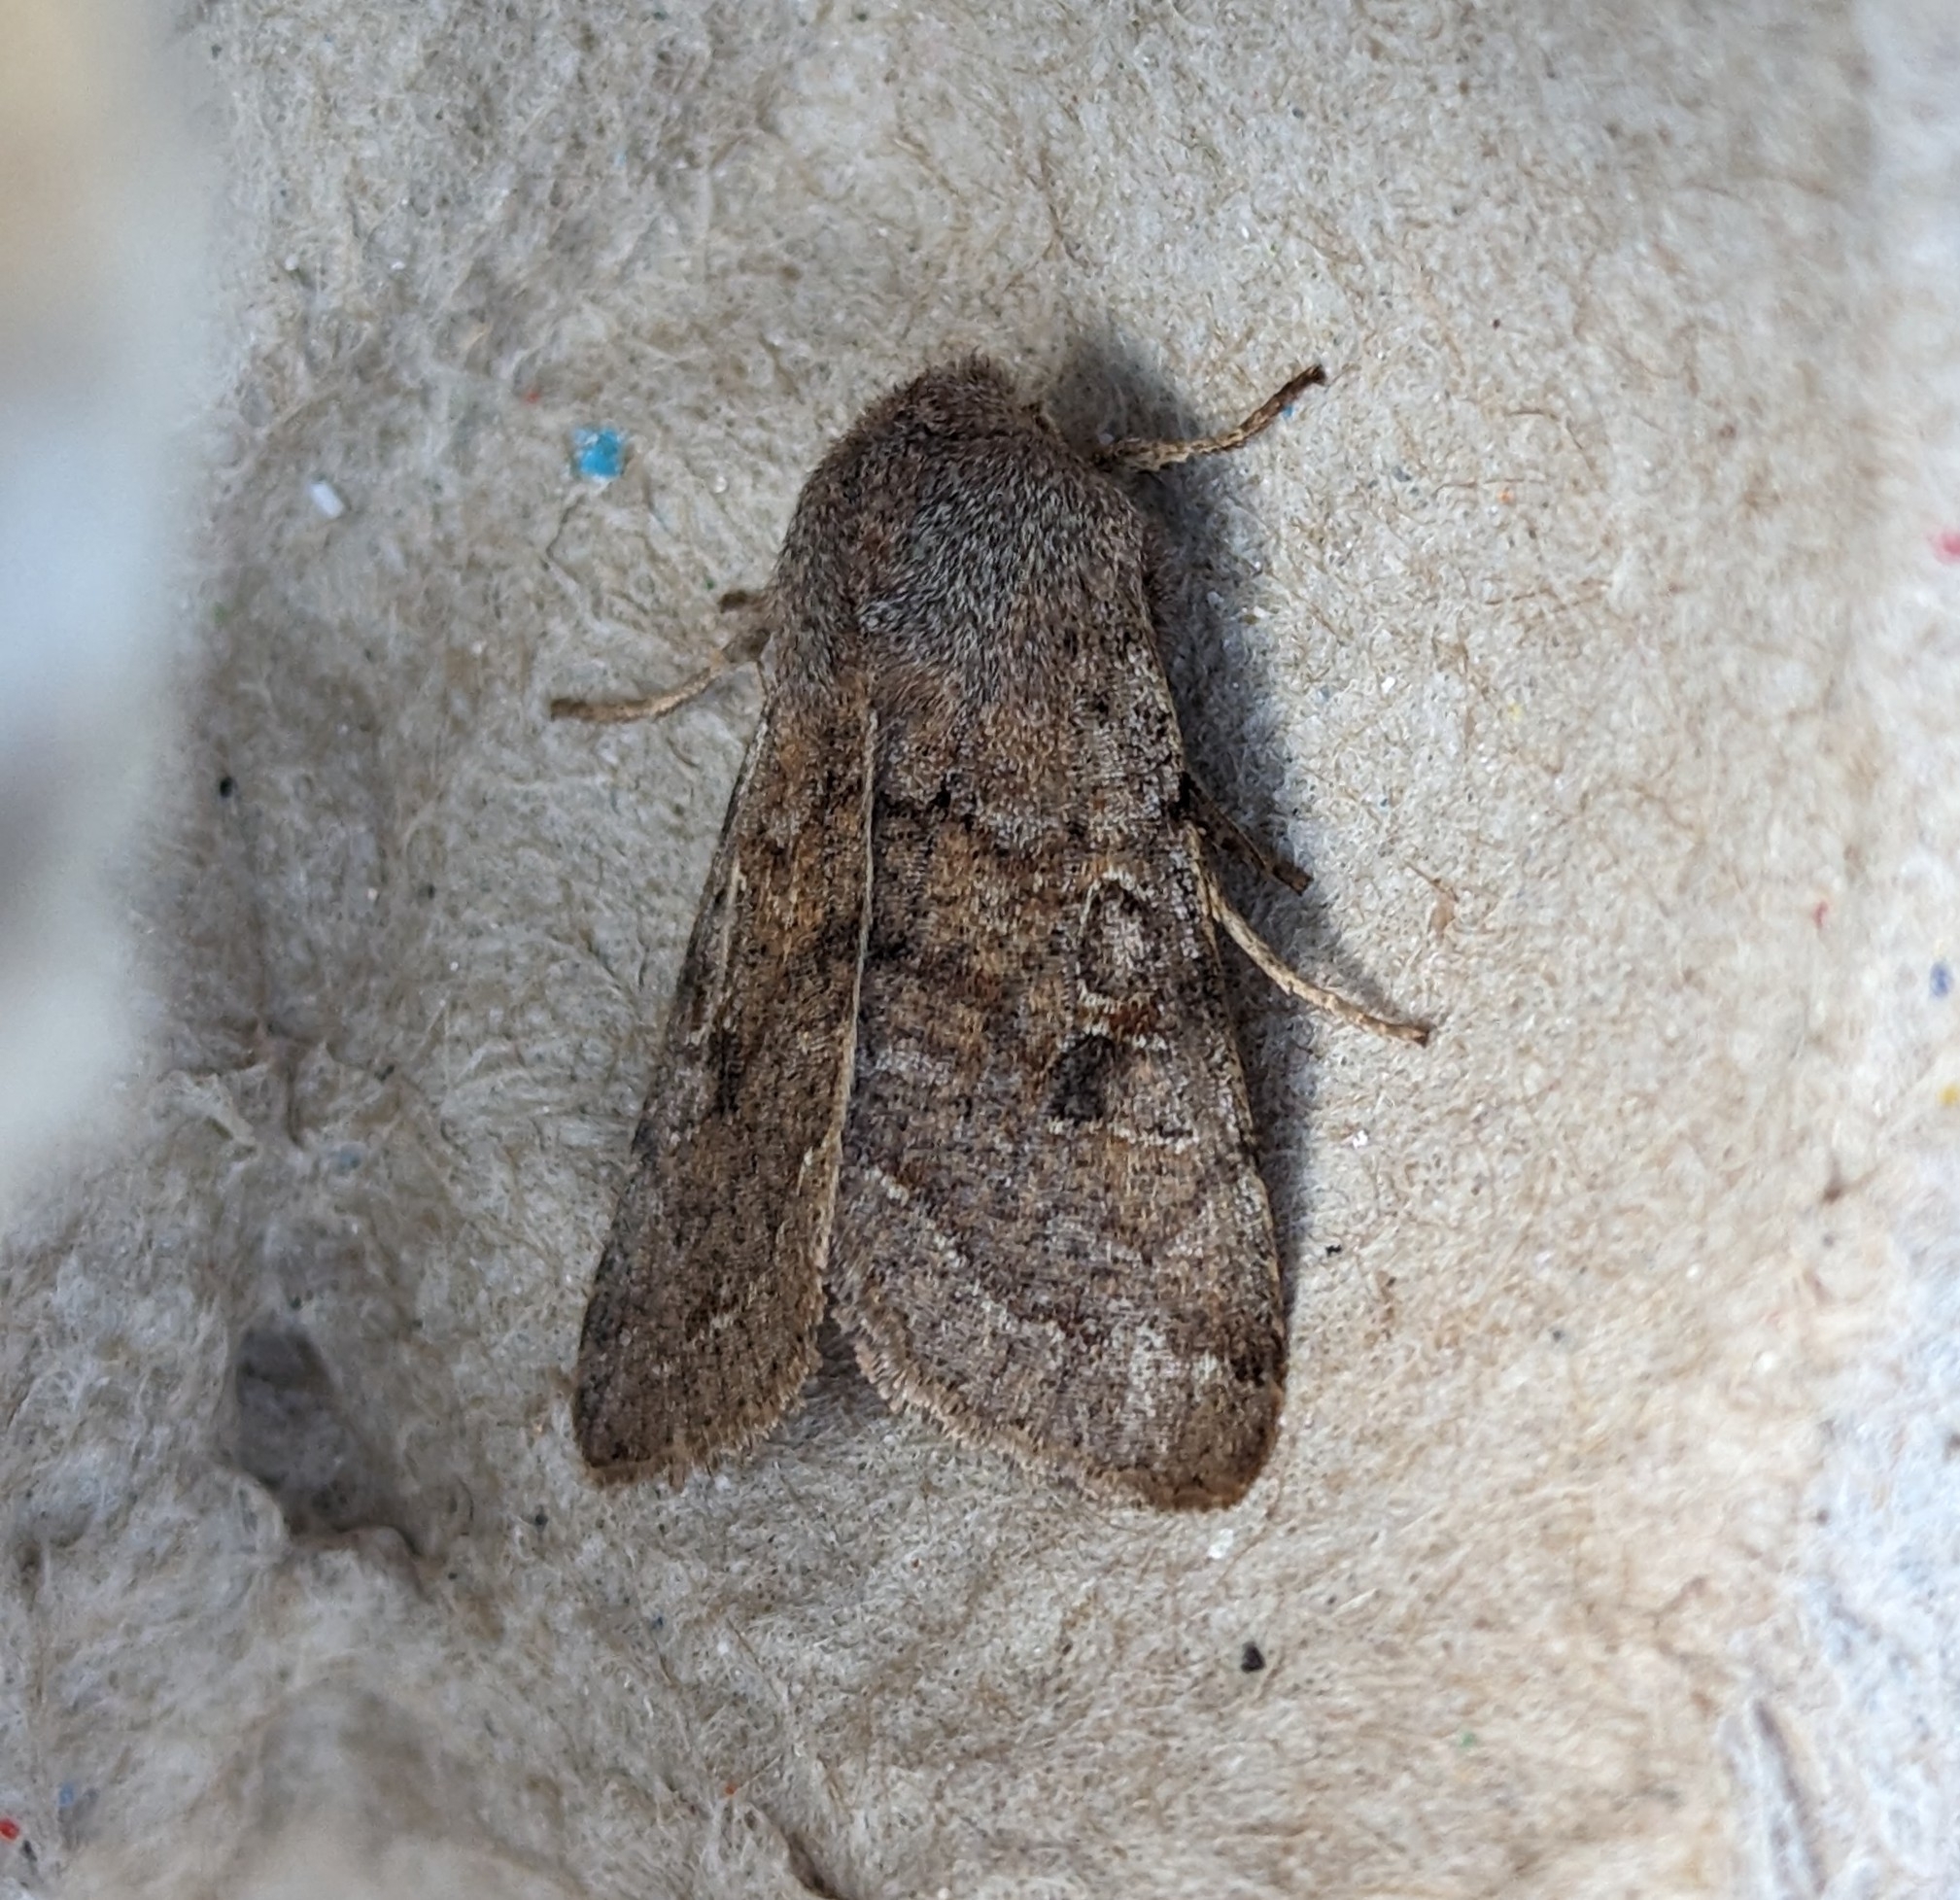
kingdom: Animalia
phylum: Arthropoda
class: Insecta
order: Lepidoptera
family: Noctuidae
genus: Orthosia
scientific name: Orthosia hibisci
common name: Green fruitworm
